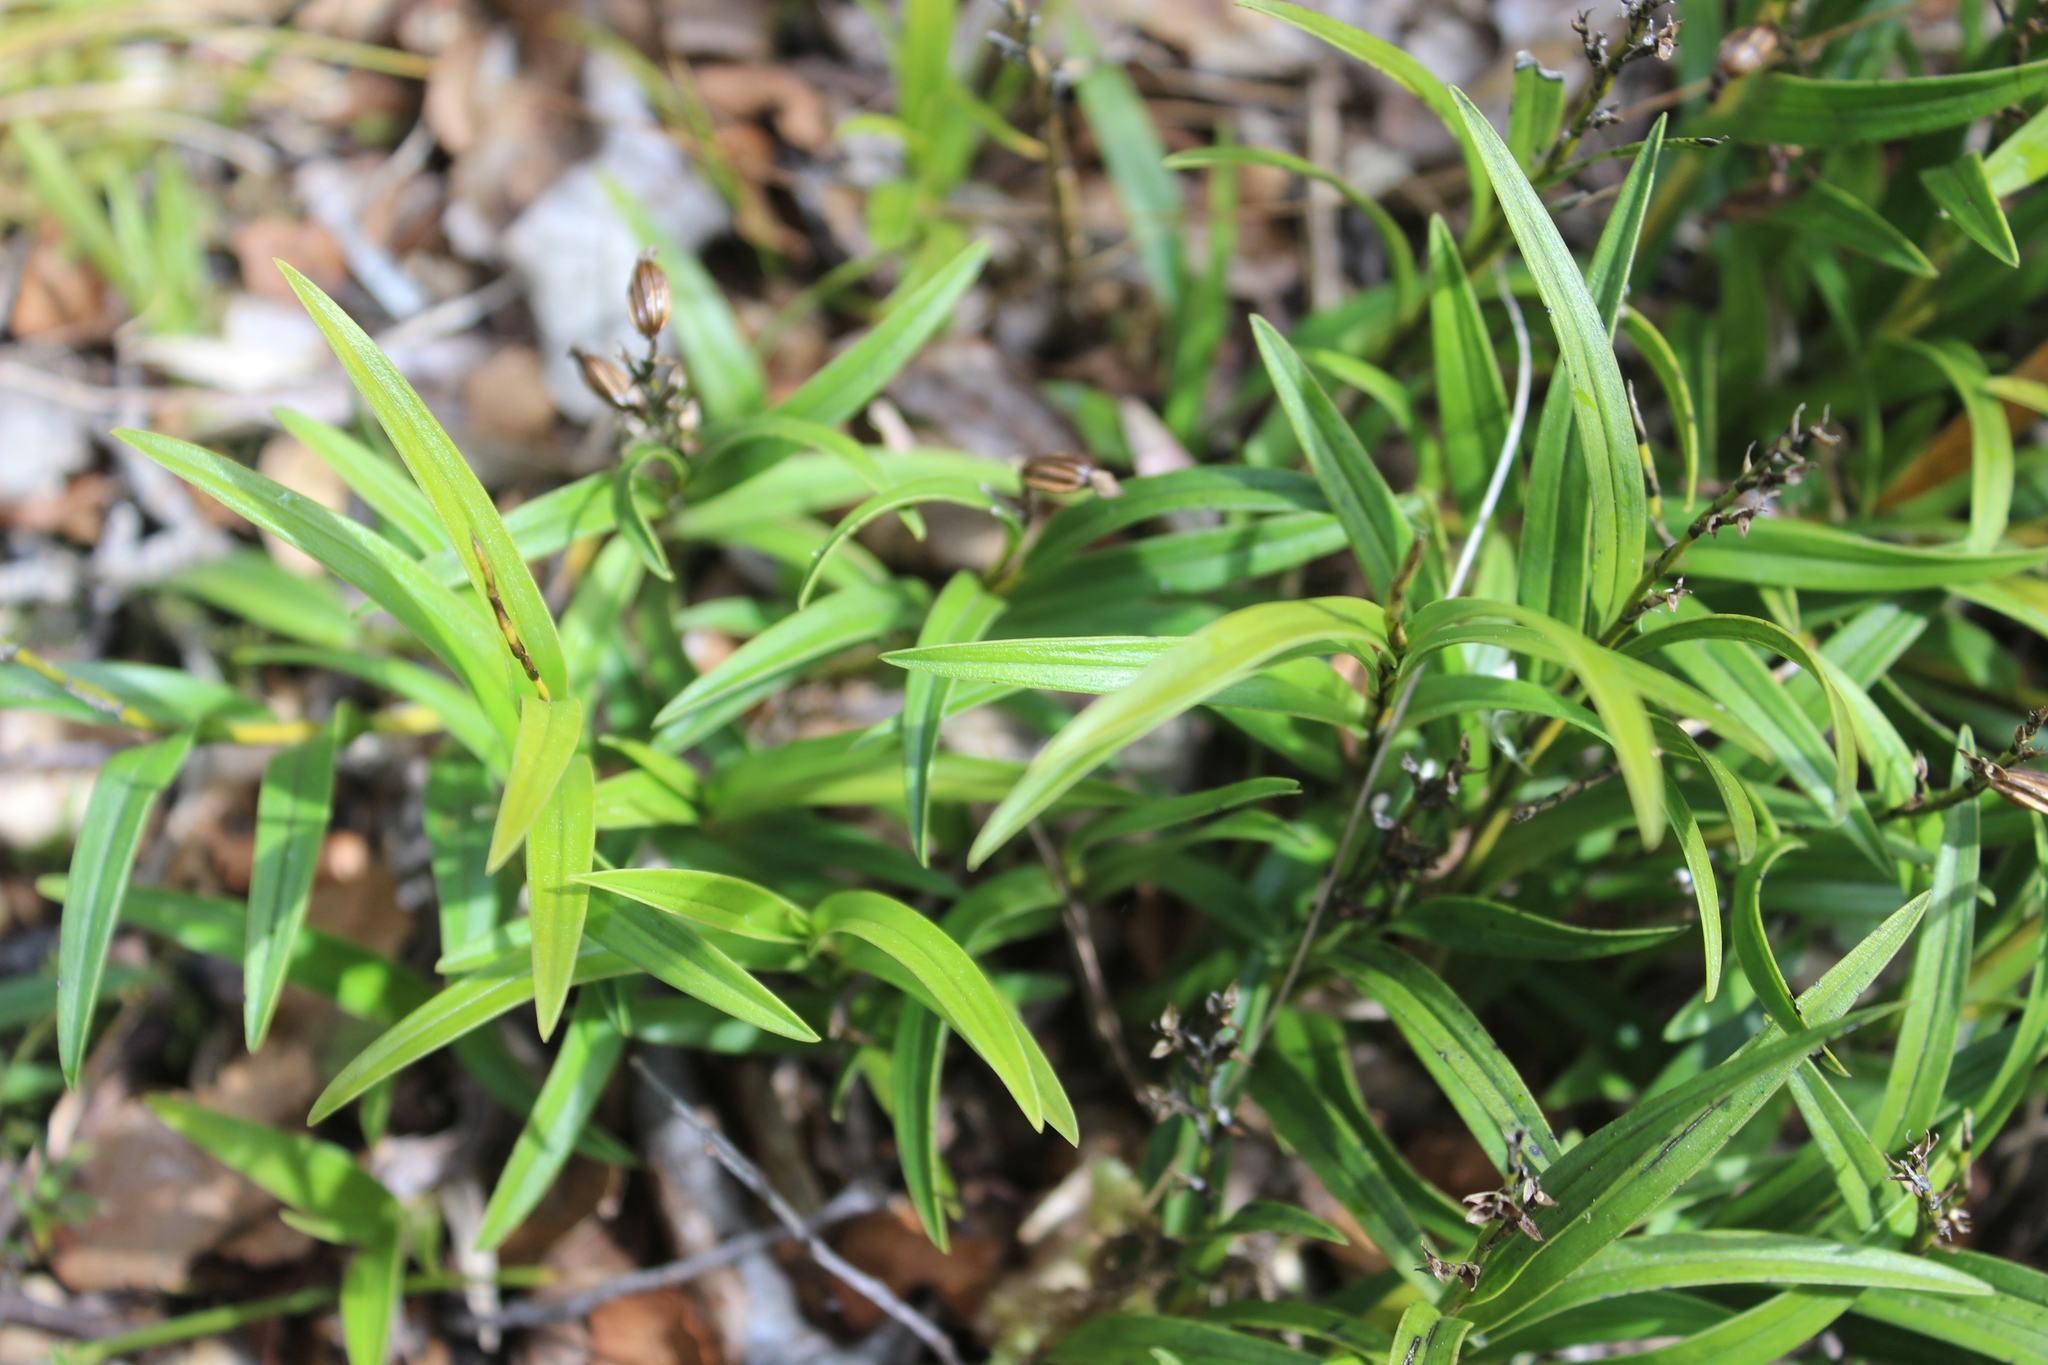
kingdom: Plantae
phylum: Tracheophyta
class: Liliopsida
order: Asparagales
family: Orchidaceae
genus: Earina
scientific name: Earina autumnalis
